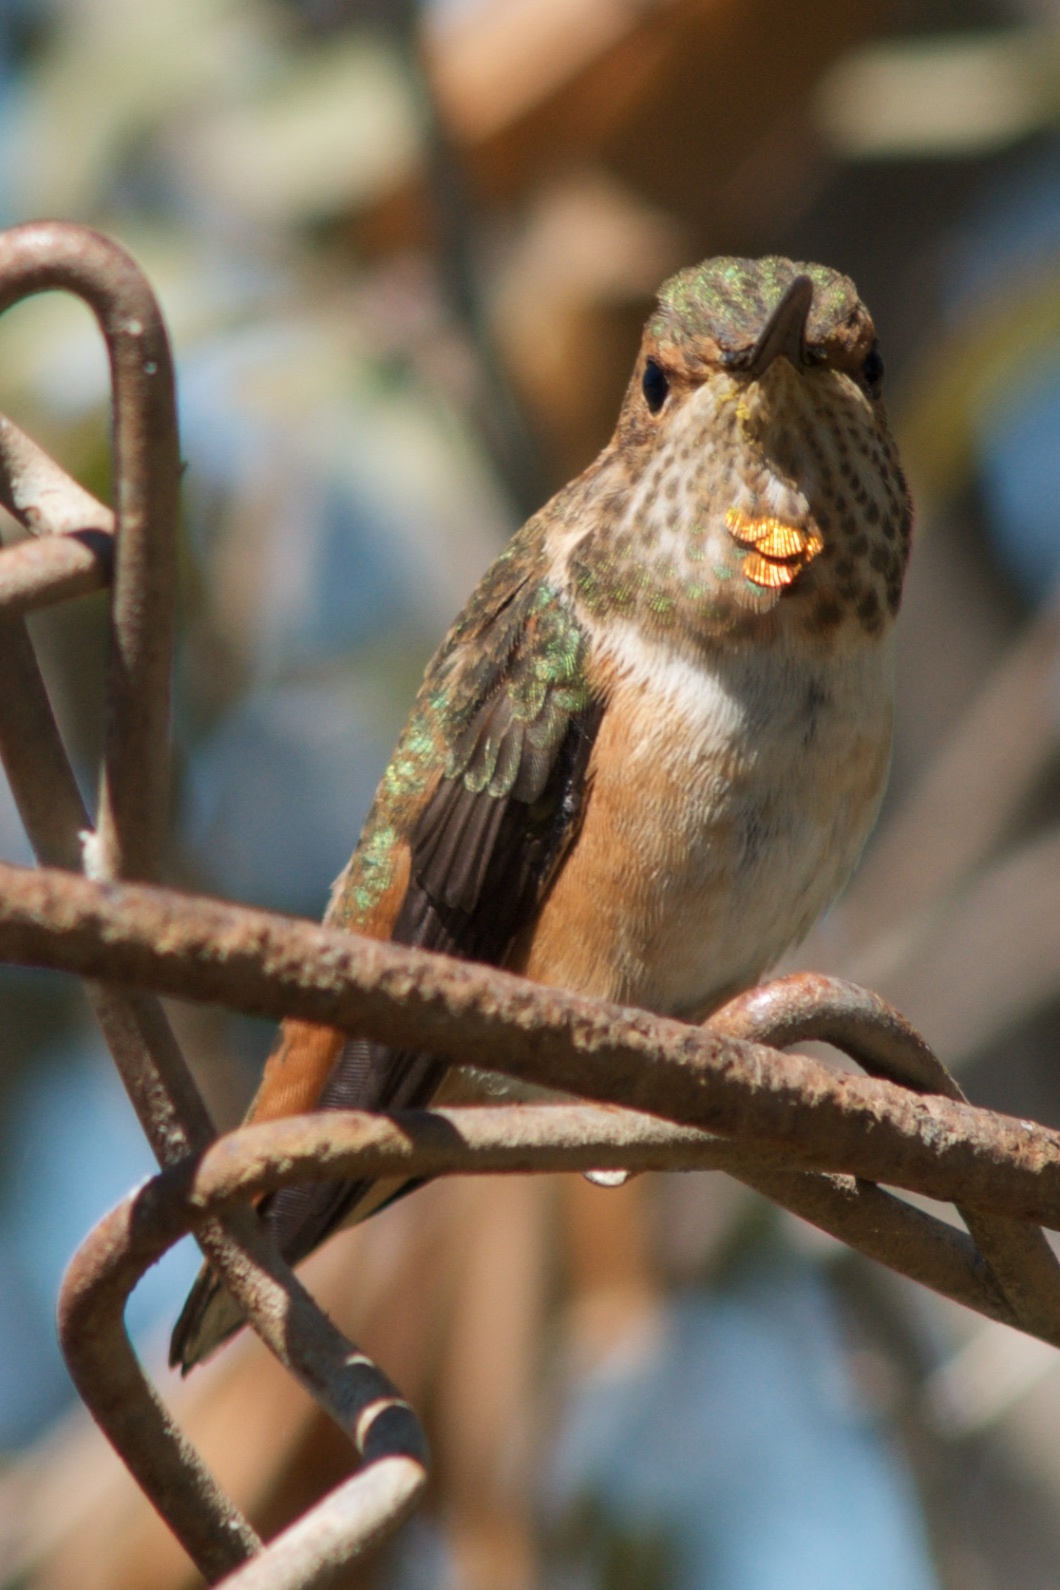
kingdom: Animalia
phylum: Chordata
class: Aves
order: Apodiformes
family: Trochilidae
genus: Selasphorus
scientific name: Selasphorus sasin
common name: Allen's hummingbird
